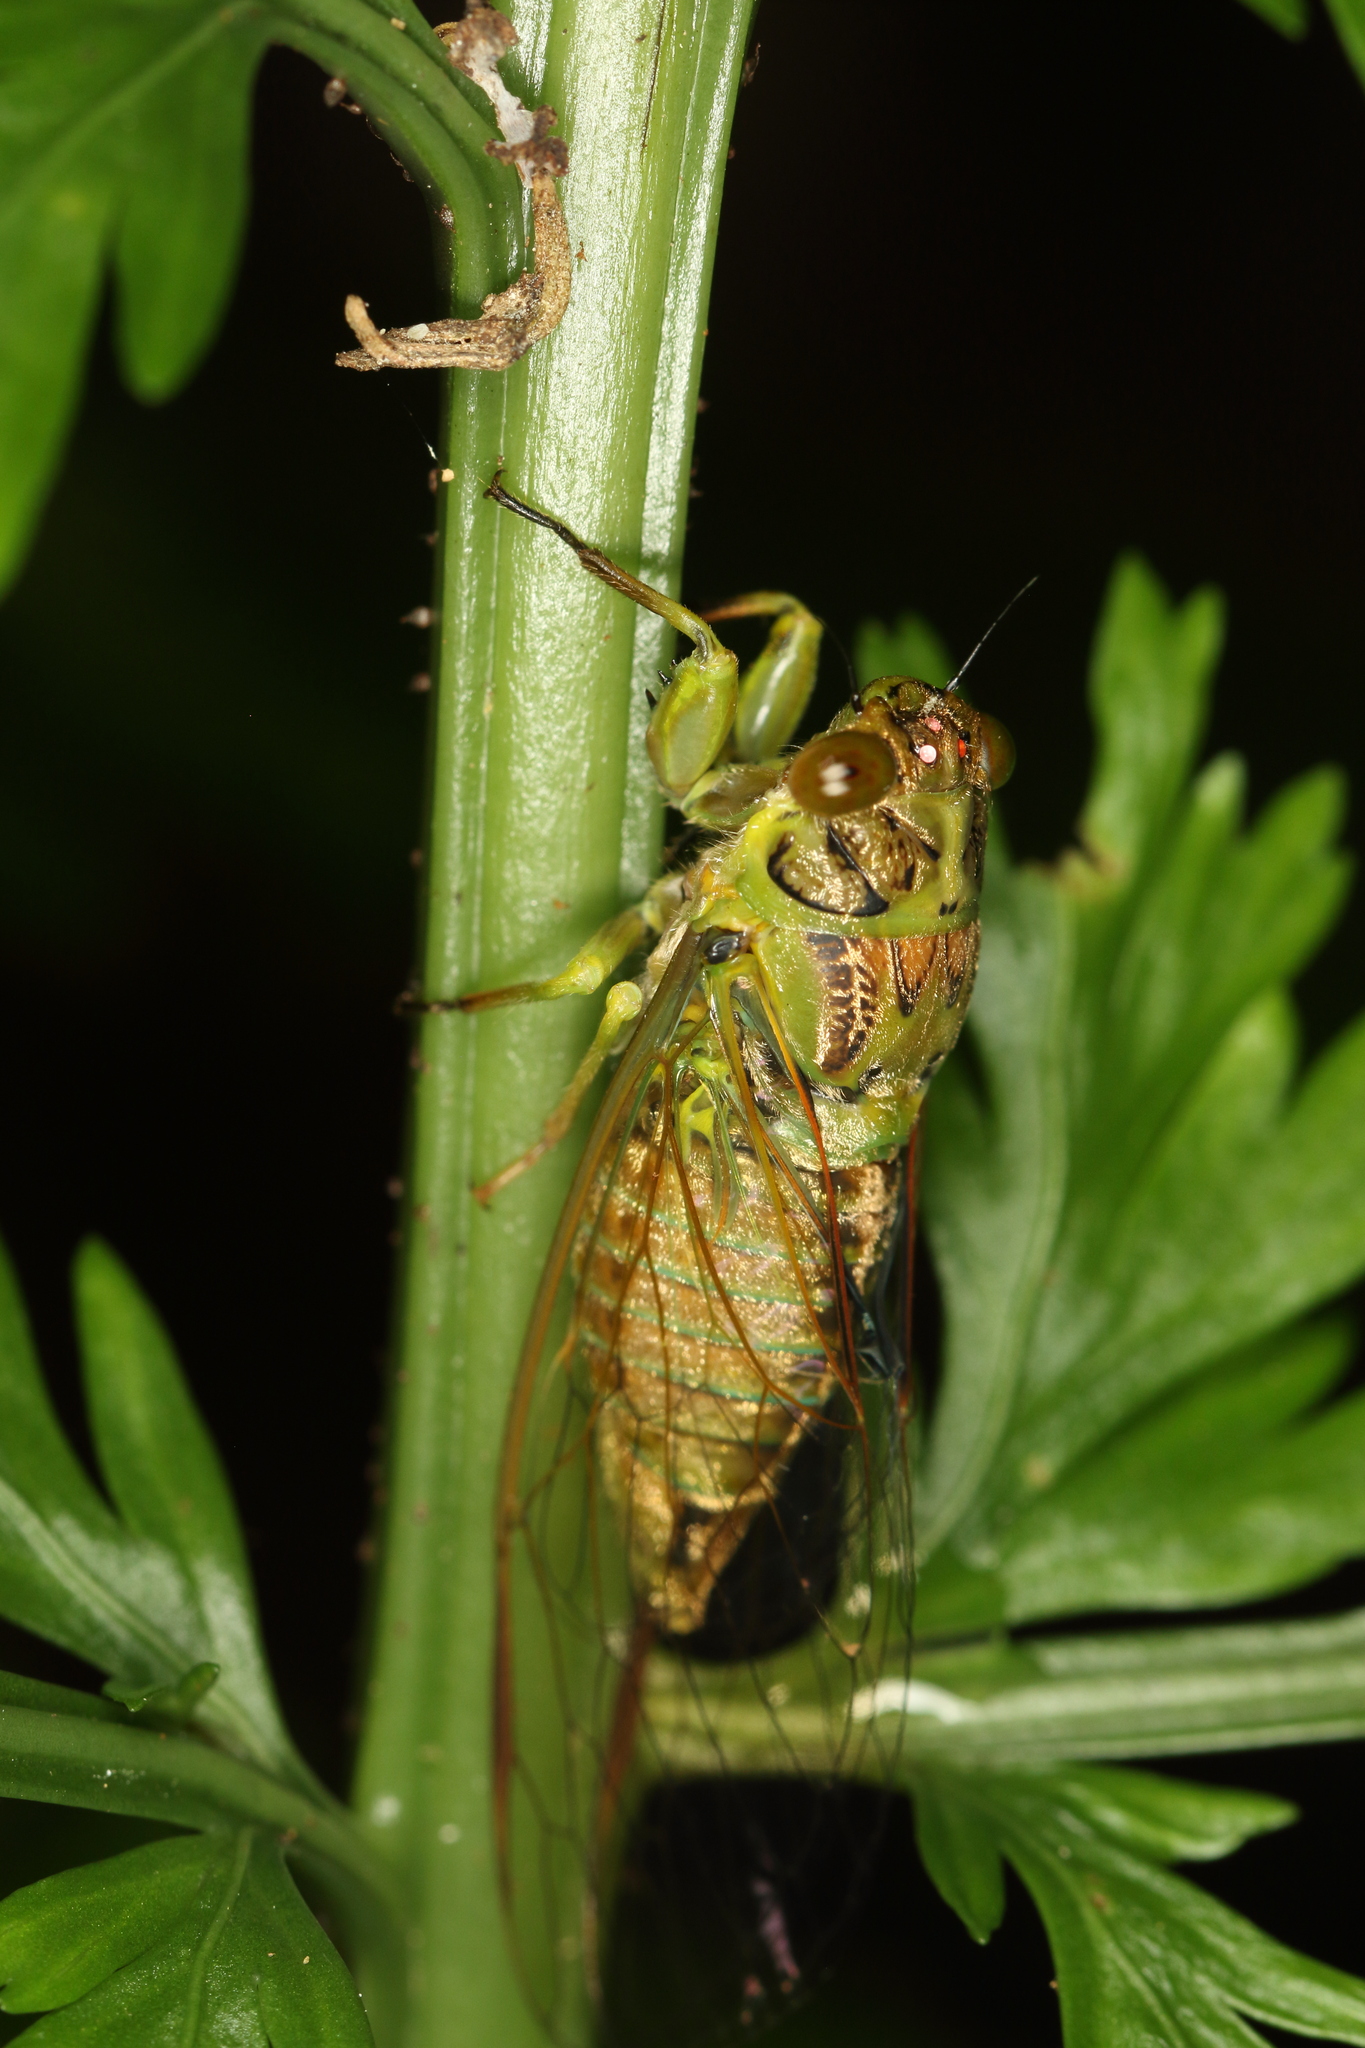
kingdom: Animalia
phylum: Arthropoda
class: Insecta
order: Hemiptera
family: Cicadidae
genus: Kikihia
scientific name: Kikihia scutellaris
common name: Lesser bronze cicada
